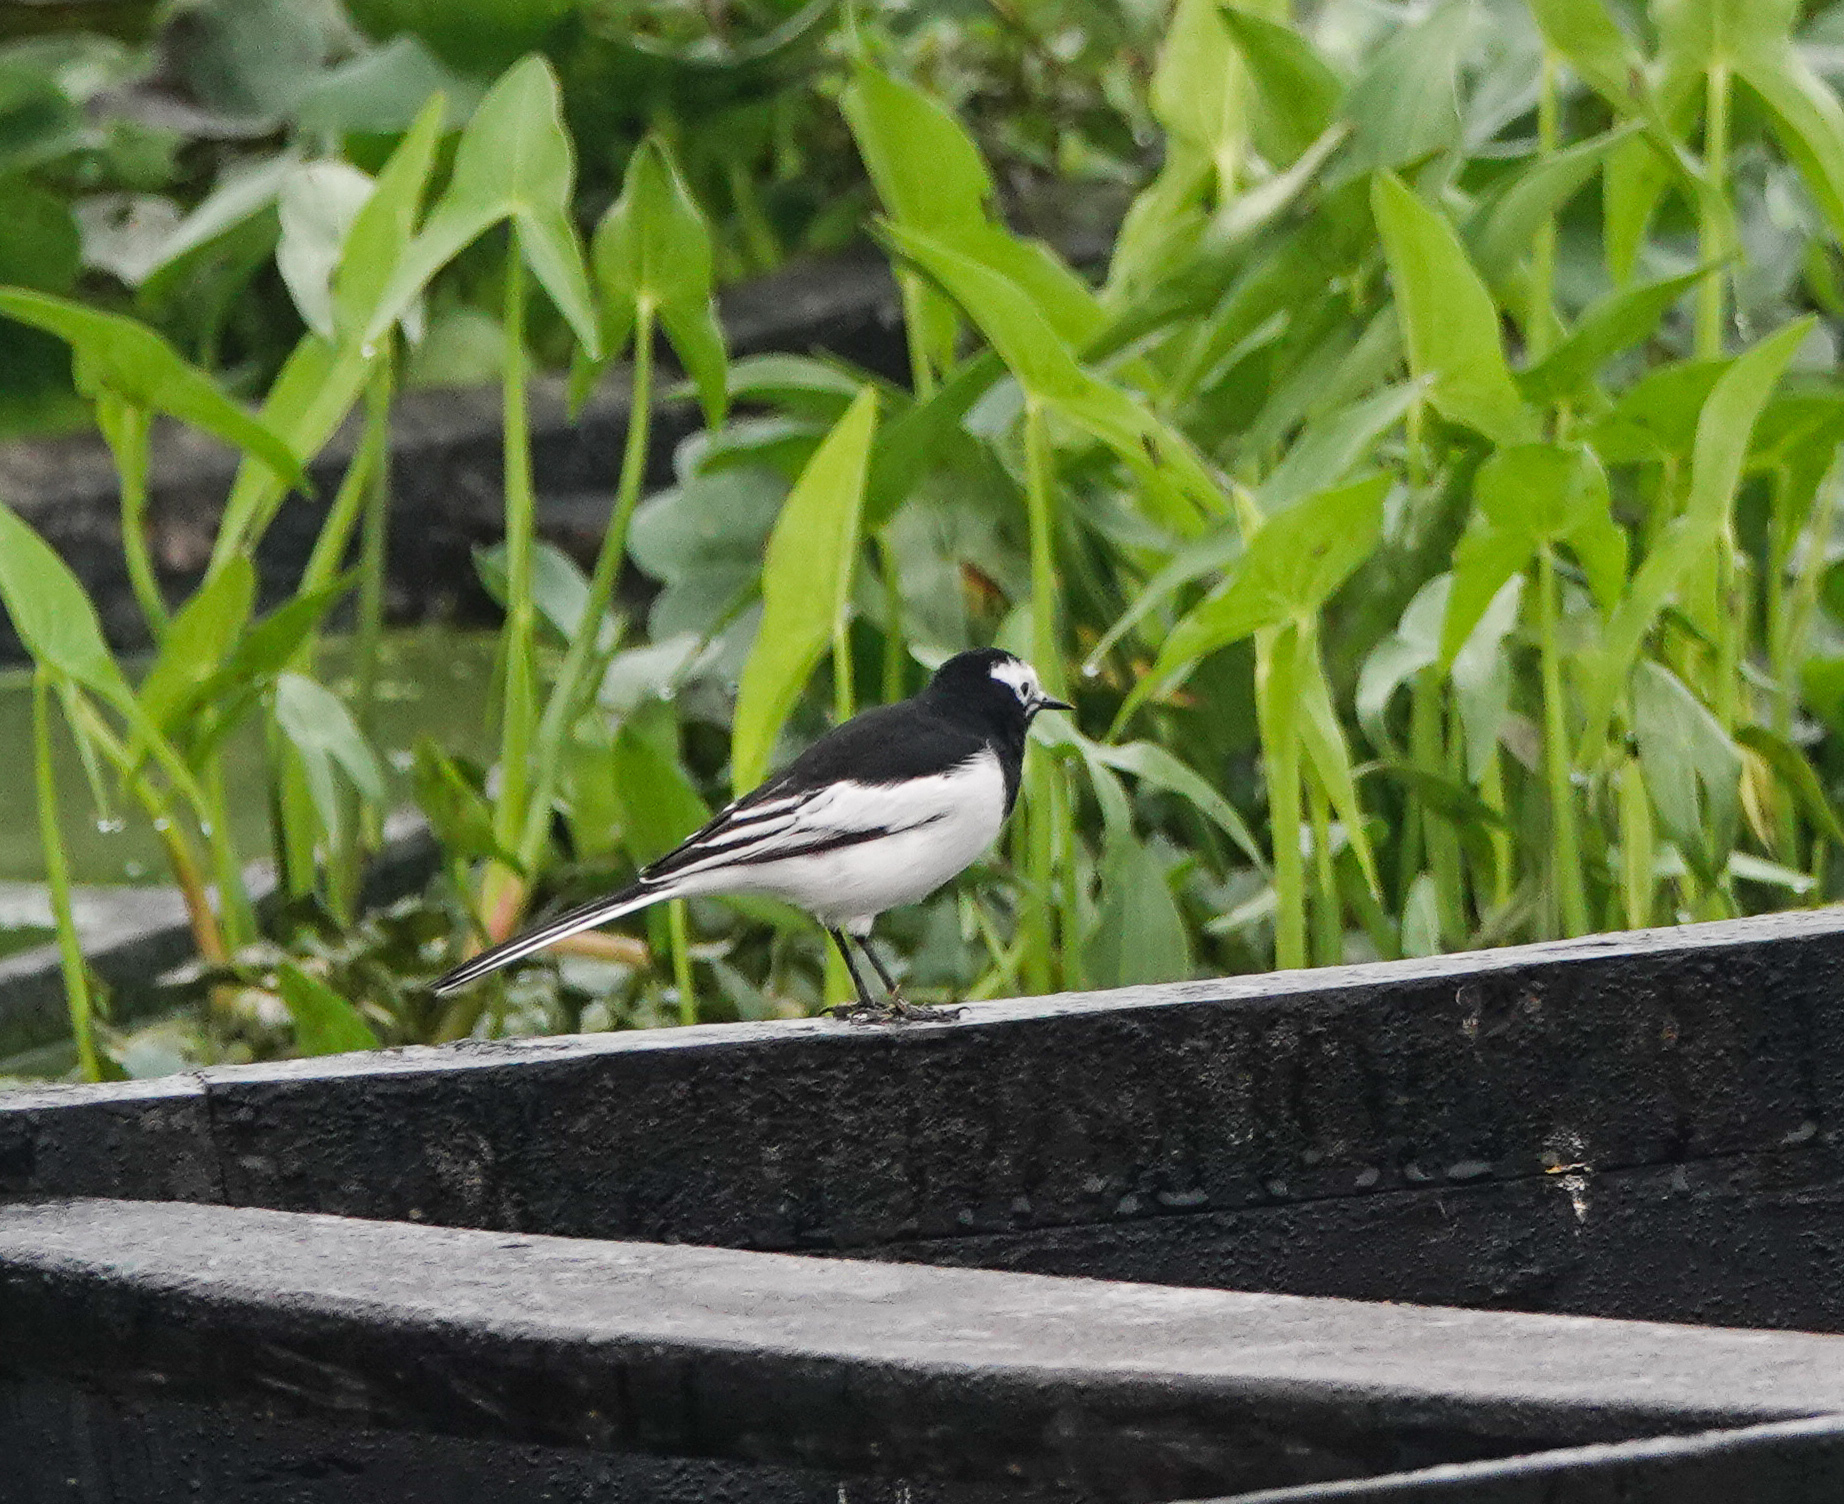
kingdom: Animalia
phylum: Chordata
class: Aves
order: Passeriformes
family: Motacillidae
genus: Motacilla
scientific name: Motacilla alba
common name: White wagtail
